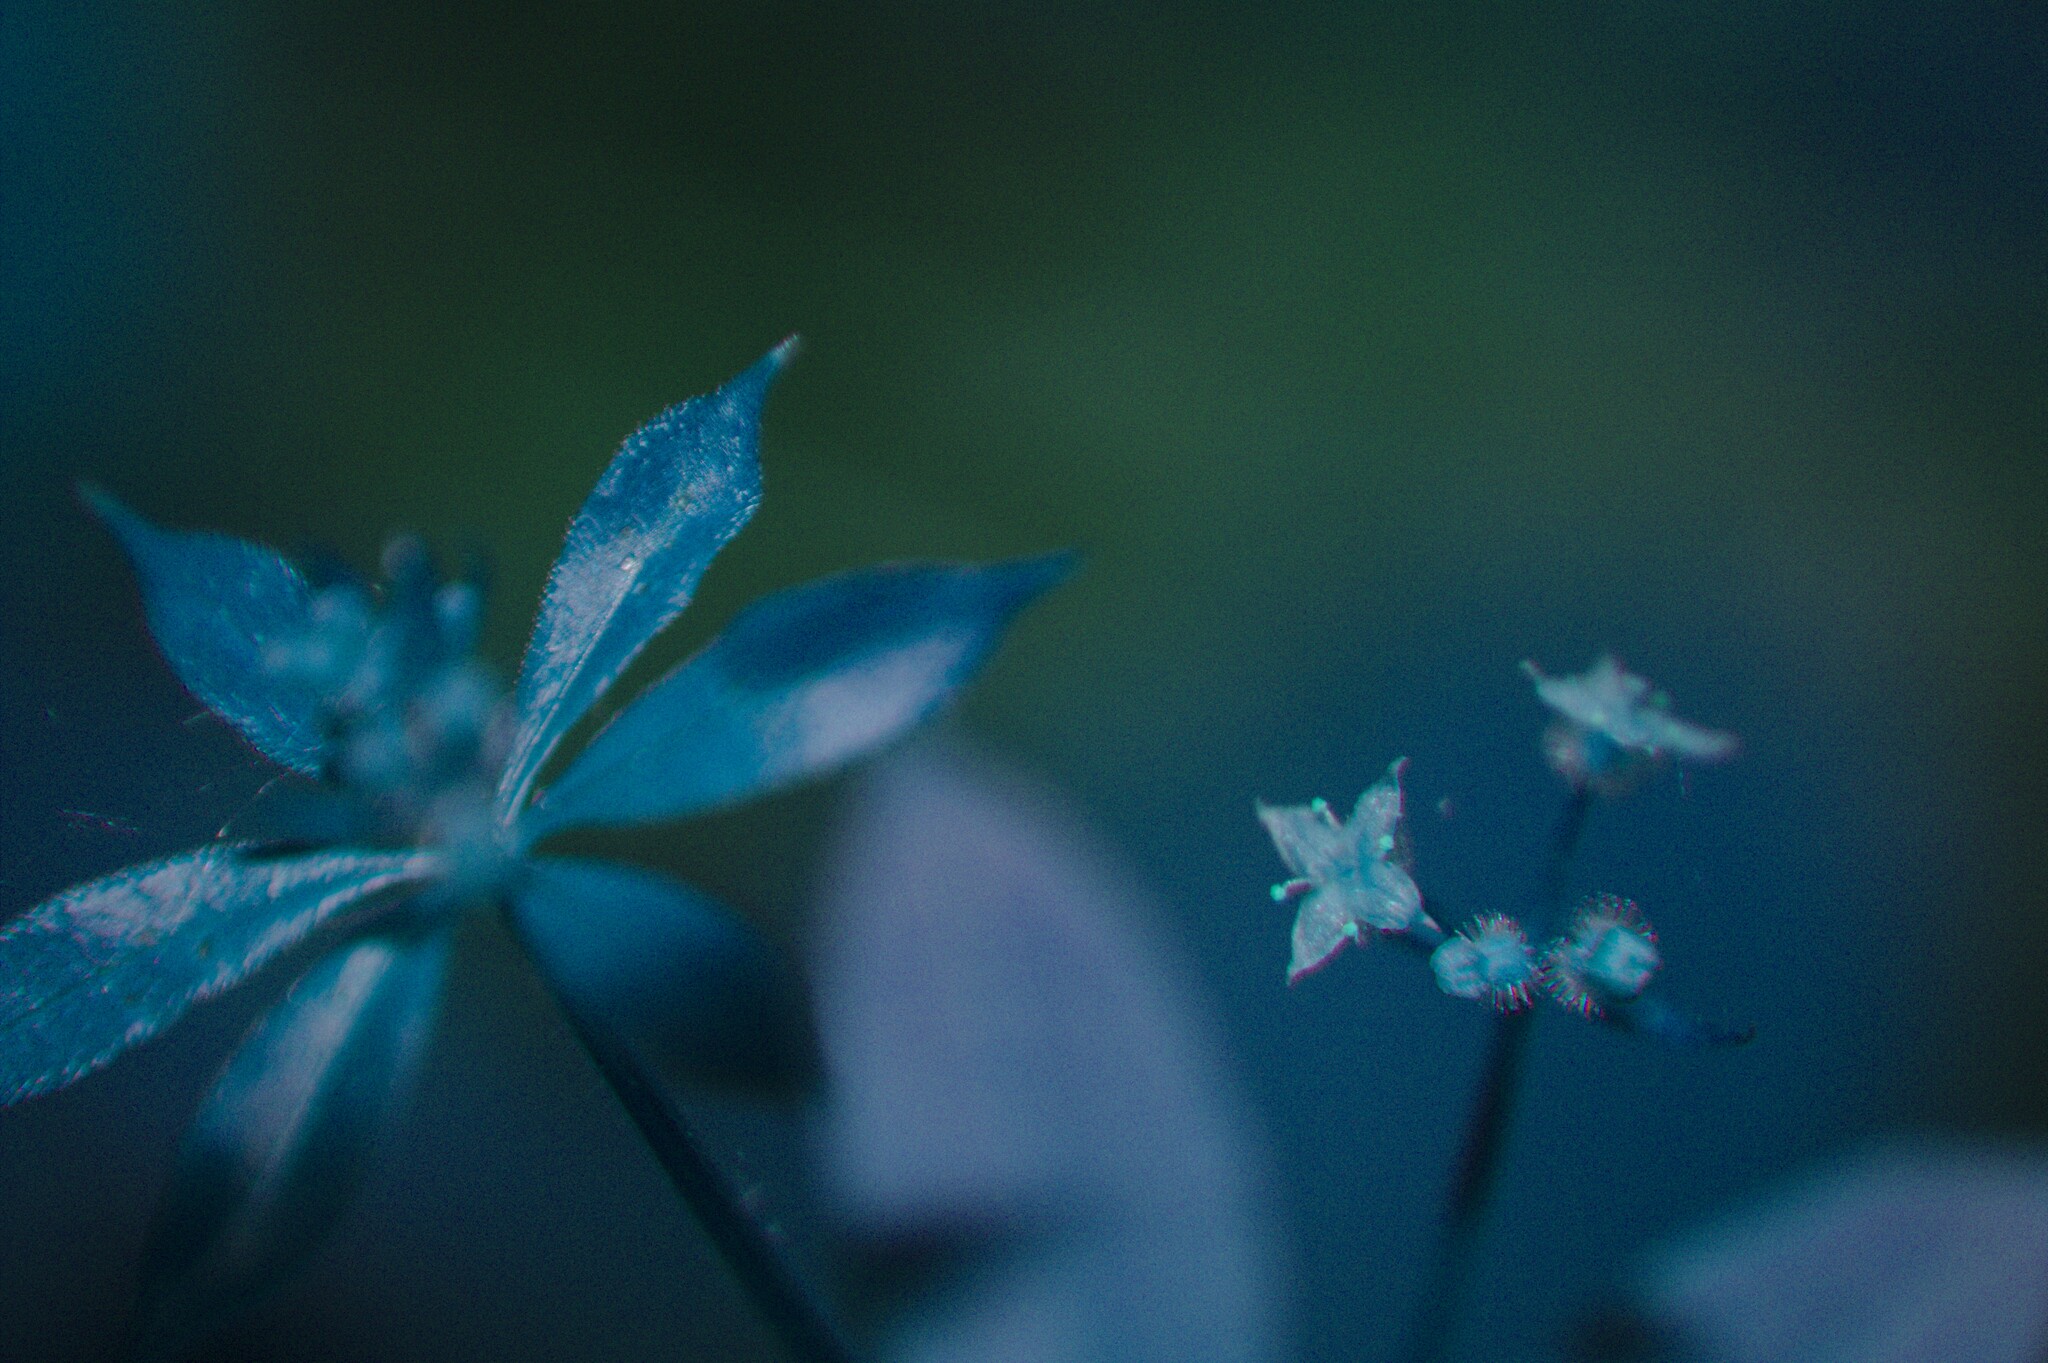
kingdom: Plantae
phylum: Tracheophyta
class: Magnoliopsida
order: Gentianales
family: Rubiaceae
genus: Galium
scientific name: Galium triflorum
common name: Fragrant bedstraw
